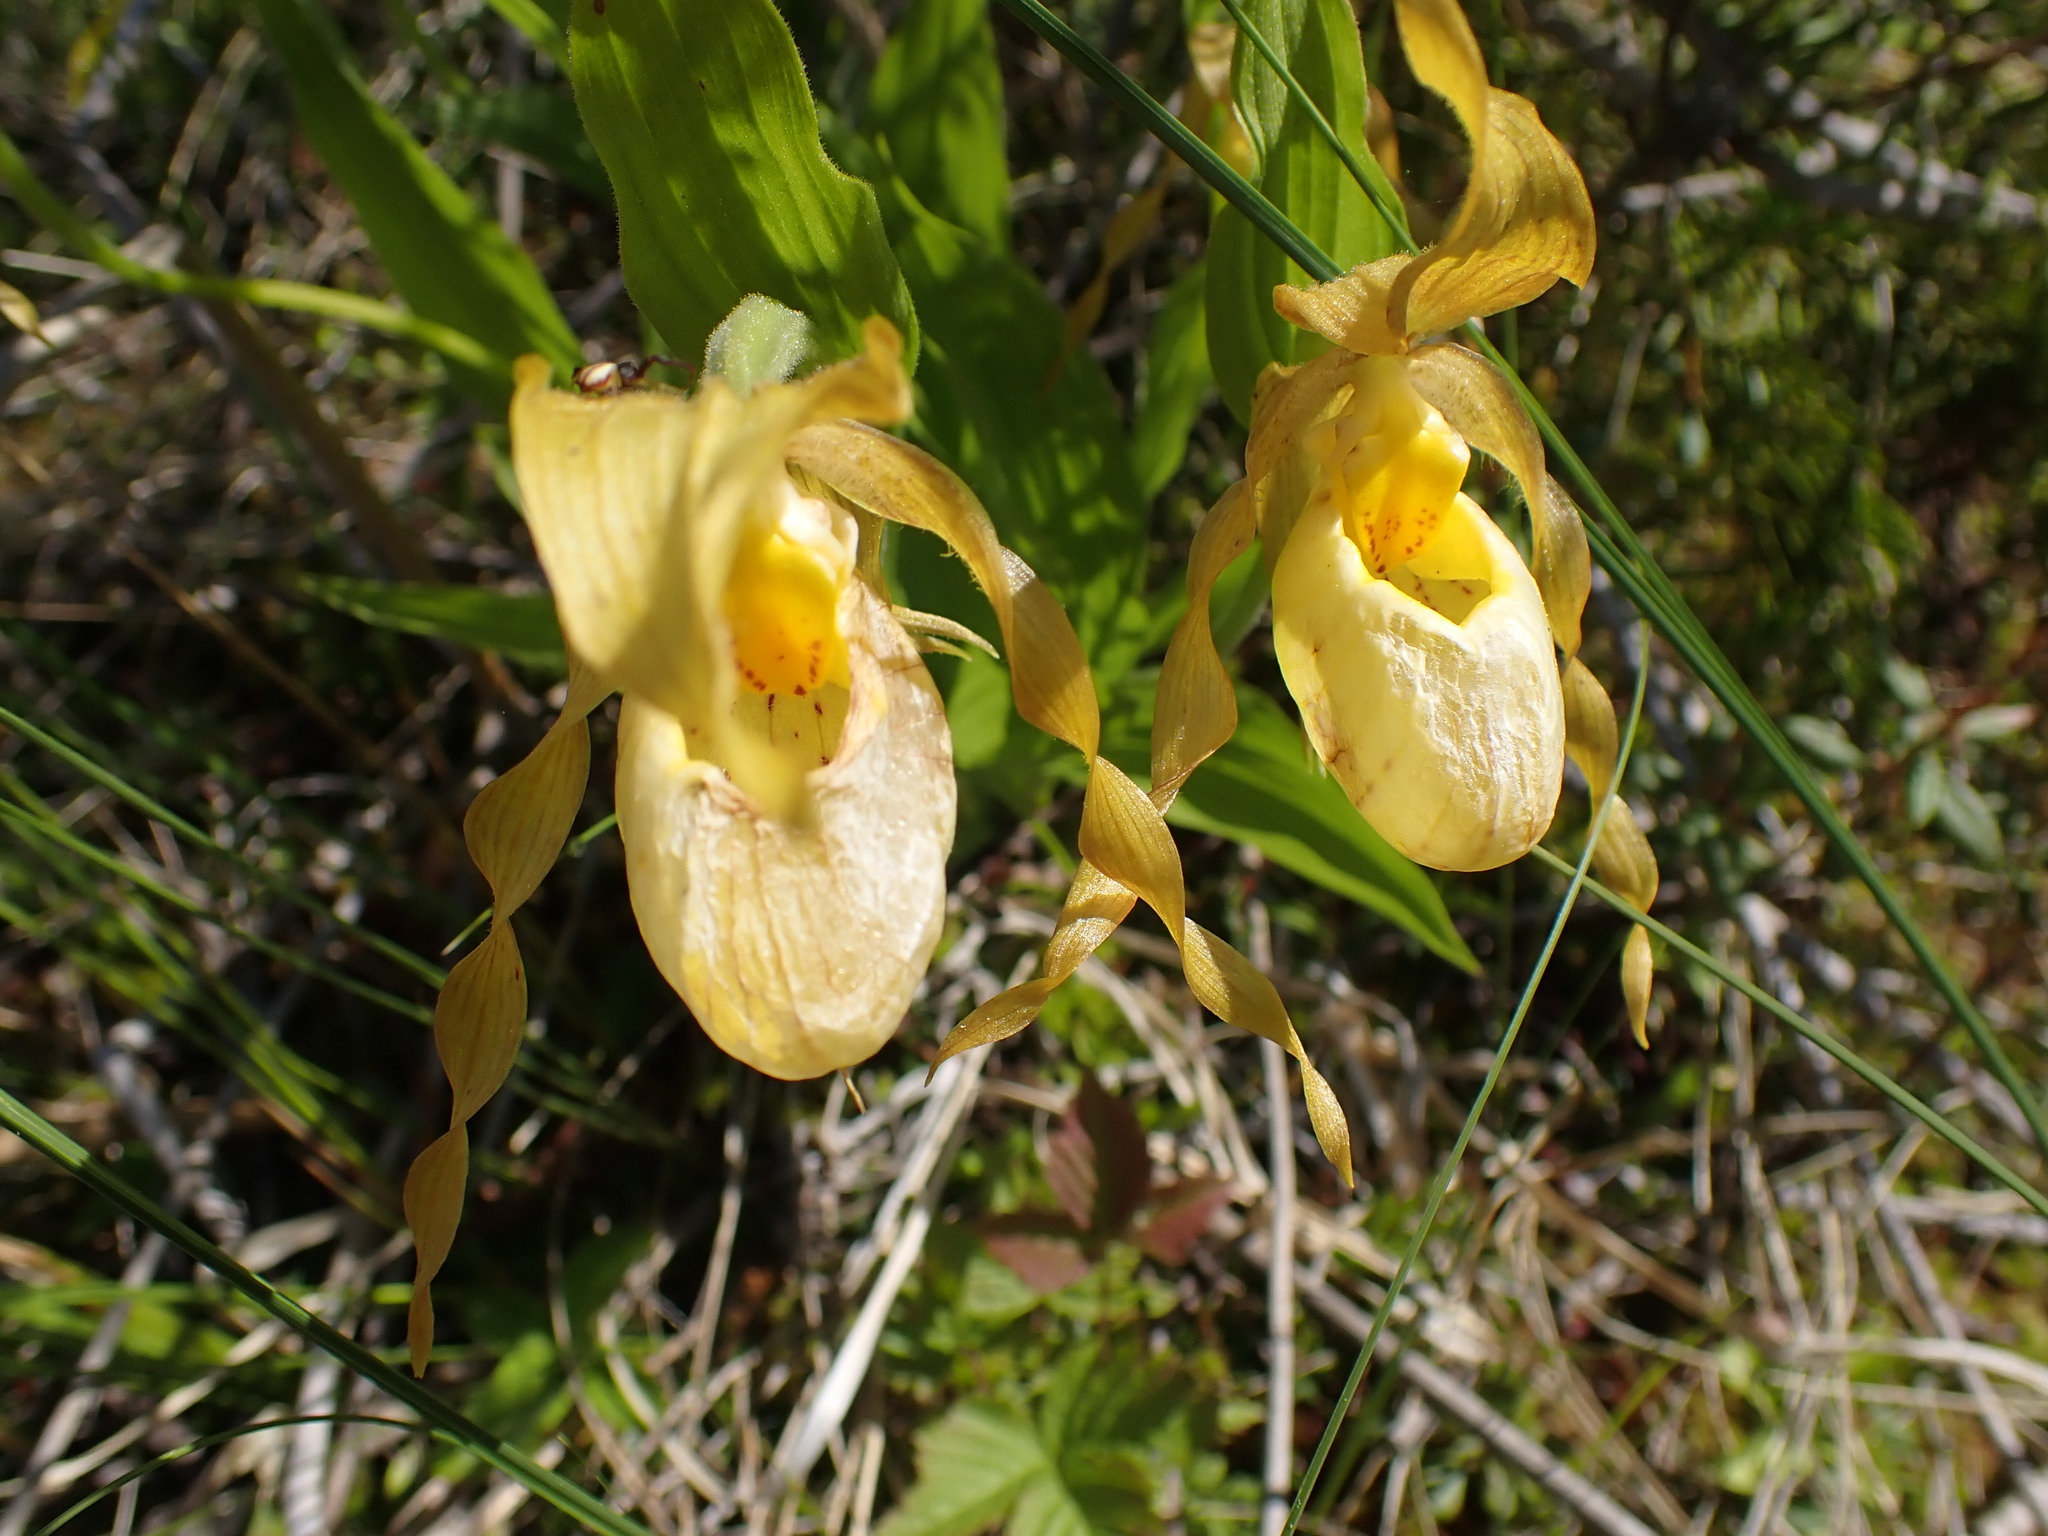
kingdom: Plantae
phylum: Tracheophyta
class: Liliopsida
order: Asparagales
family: Orchidaceae
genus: Cypripedium
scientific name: Cypripedium parviflorum
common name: American yellow lady's-slipper
